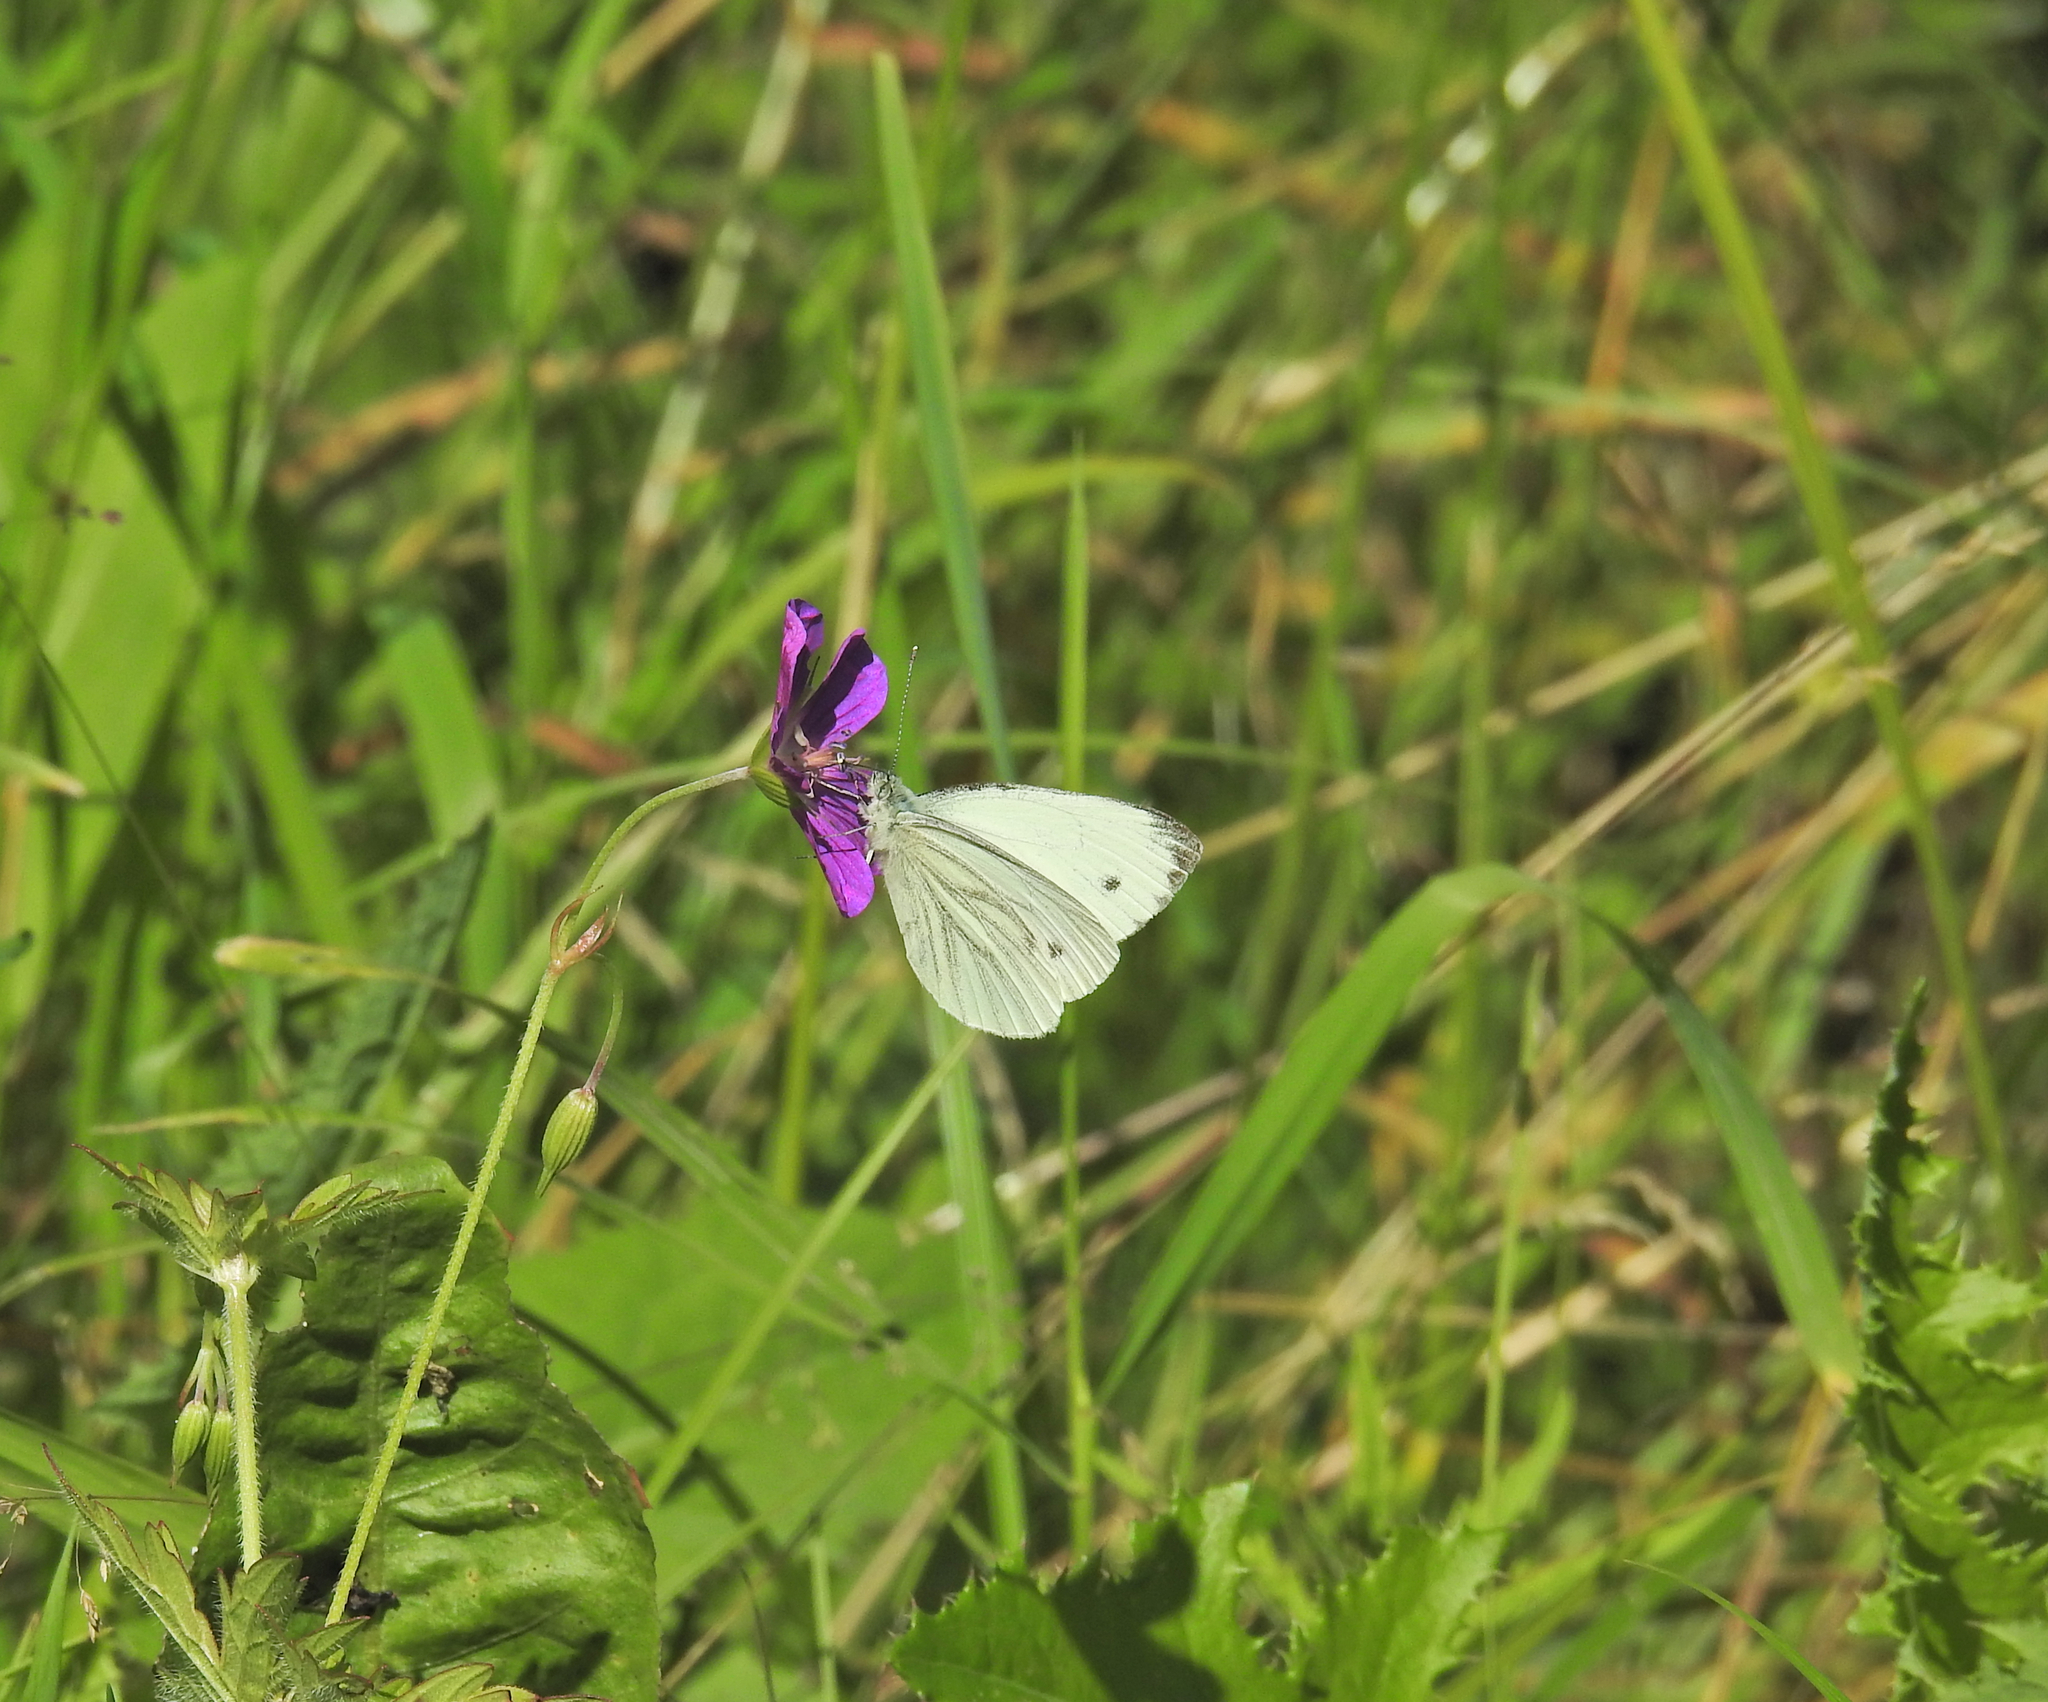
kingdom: Animalia
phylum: Arthropoda
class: Insecta
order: Lepidoptera
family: Pieridae
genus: Pieris
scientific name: Pieris napi
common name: Green-veined white
